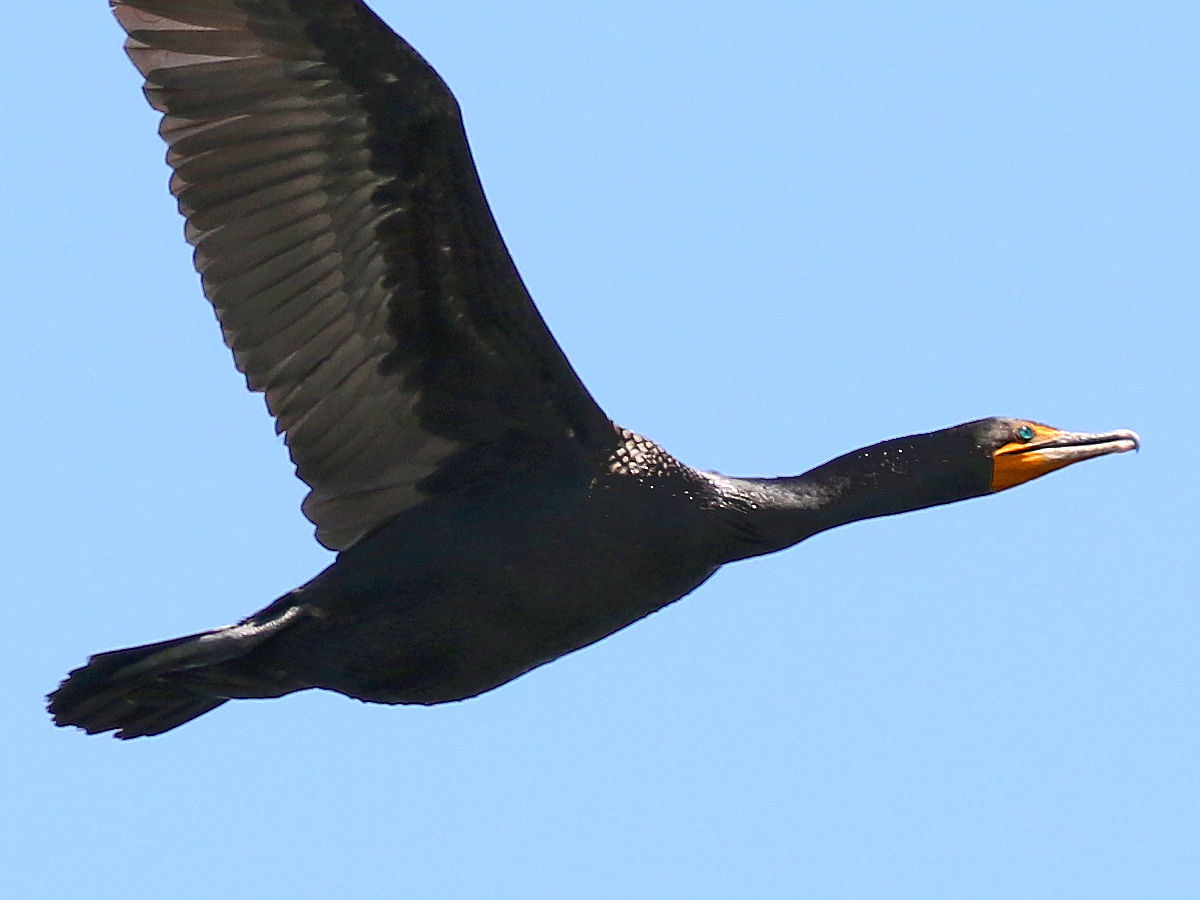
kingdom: Animalia
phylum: Chordata
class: Aves
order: Suliformes
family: Phalacrocoracidae
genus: Phalacrocorax
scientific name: Phalacrocorax auritus
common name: Double-crested cormorant
